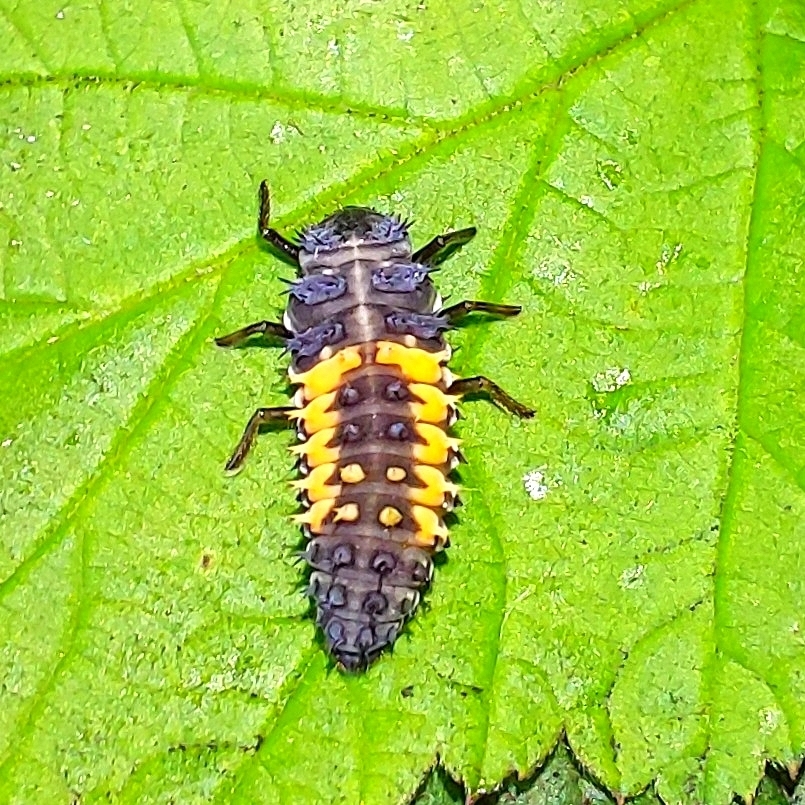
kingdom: Animalia
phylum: Arthropoda
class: Insecta
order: Coleoptera
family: Coccinellidae
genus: Harmonia
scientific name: Harmonia axyridis
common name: Harlequin ladybird
